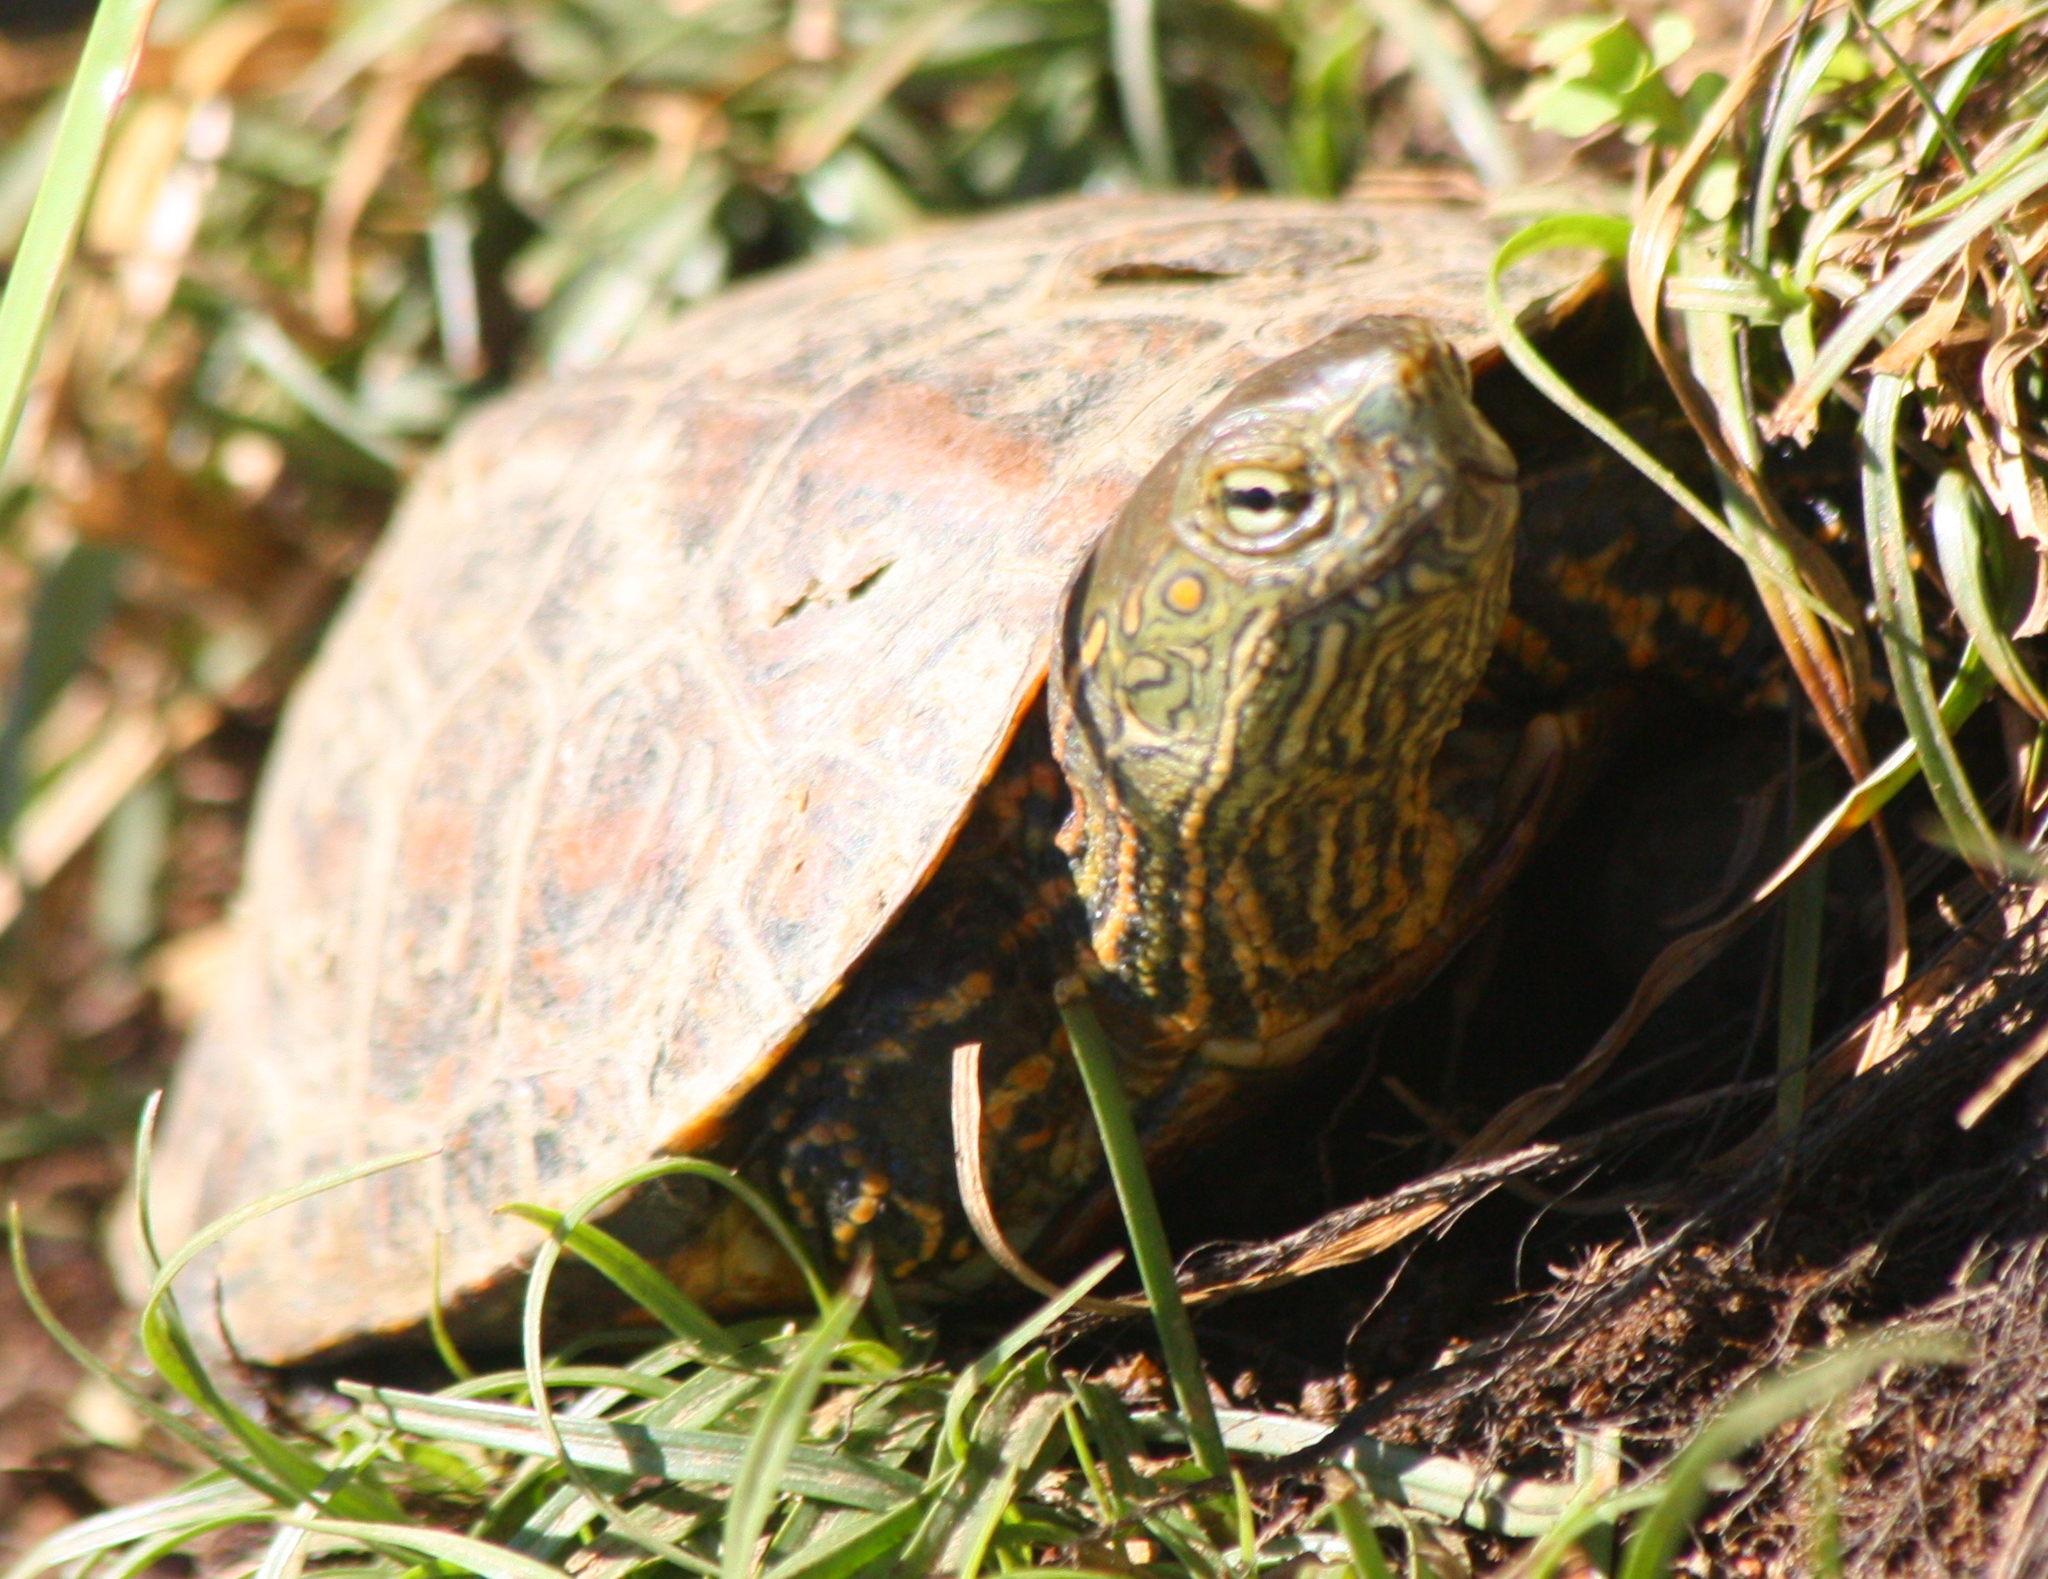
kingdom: Animalia
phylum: Chordata
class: Testudines
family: Geoemydidae
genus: Mauremys
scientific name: Mauremys leprosa
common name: Mediterranean pond turtle
